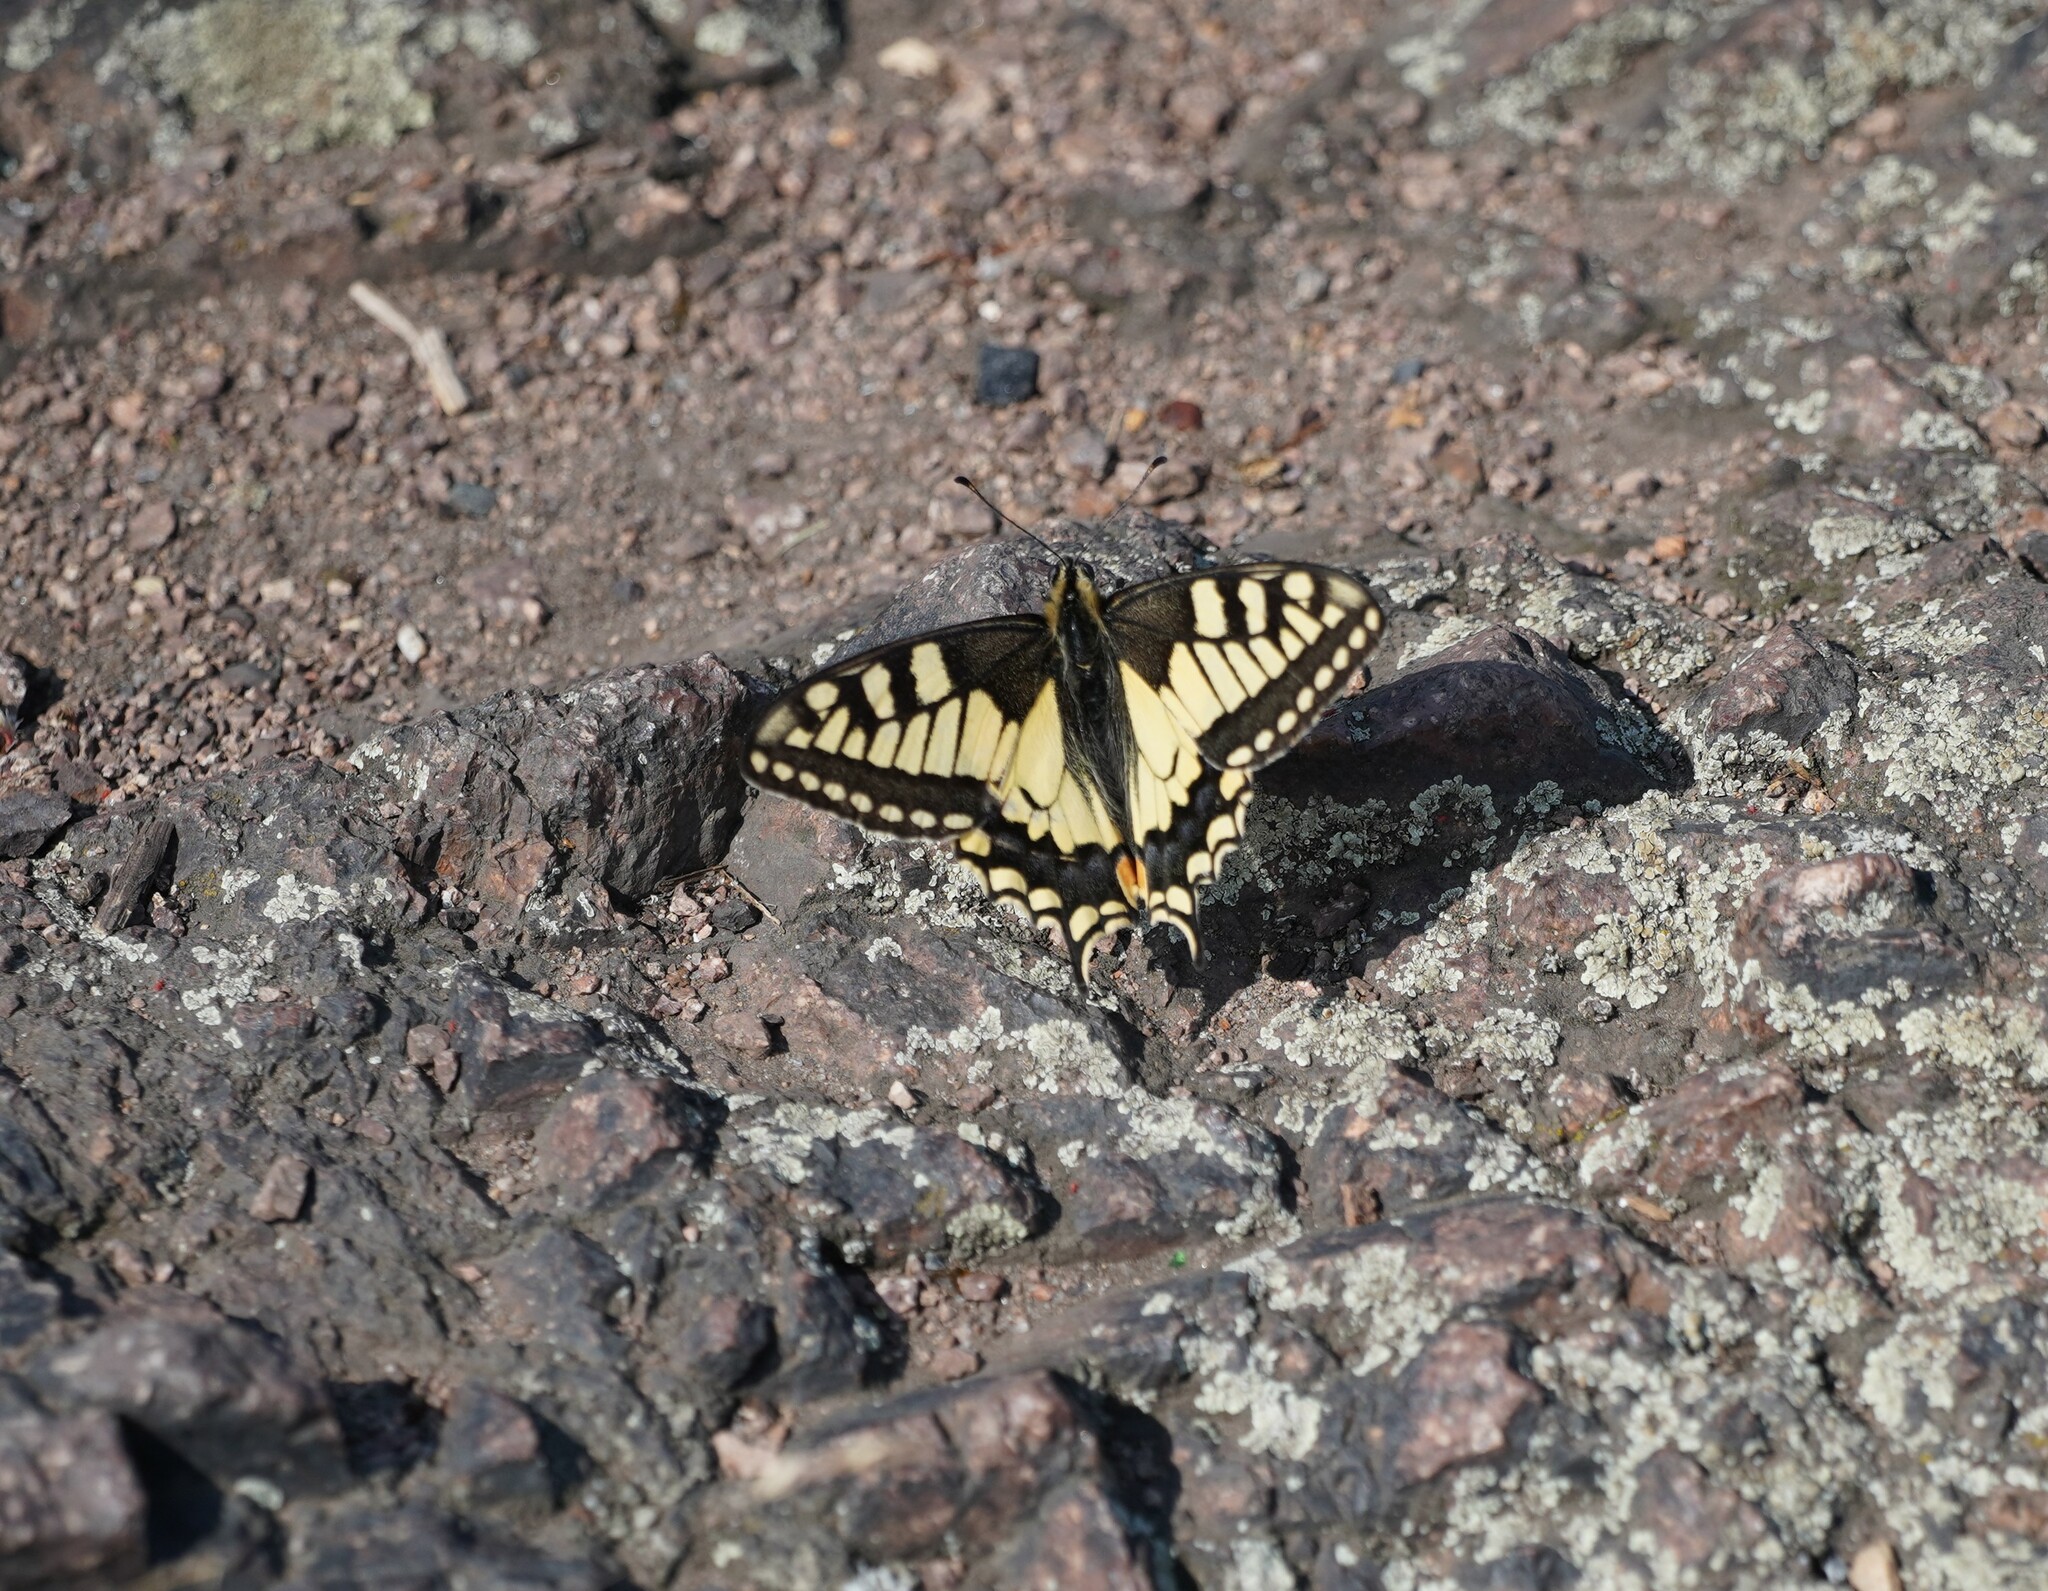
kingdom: Animalia
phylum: Arthropoda
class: Insecta
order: Lepidoptera
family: Papilionidae
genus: Papilio
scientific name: Papilio machaon
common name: Swallowtail
